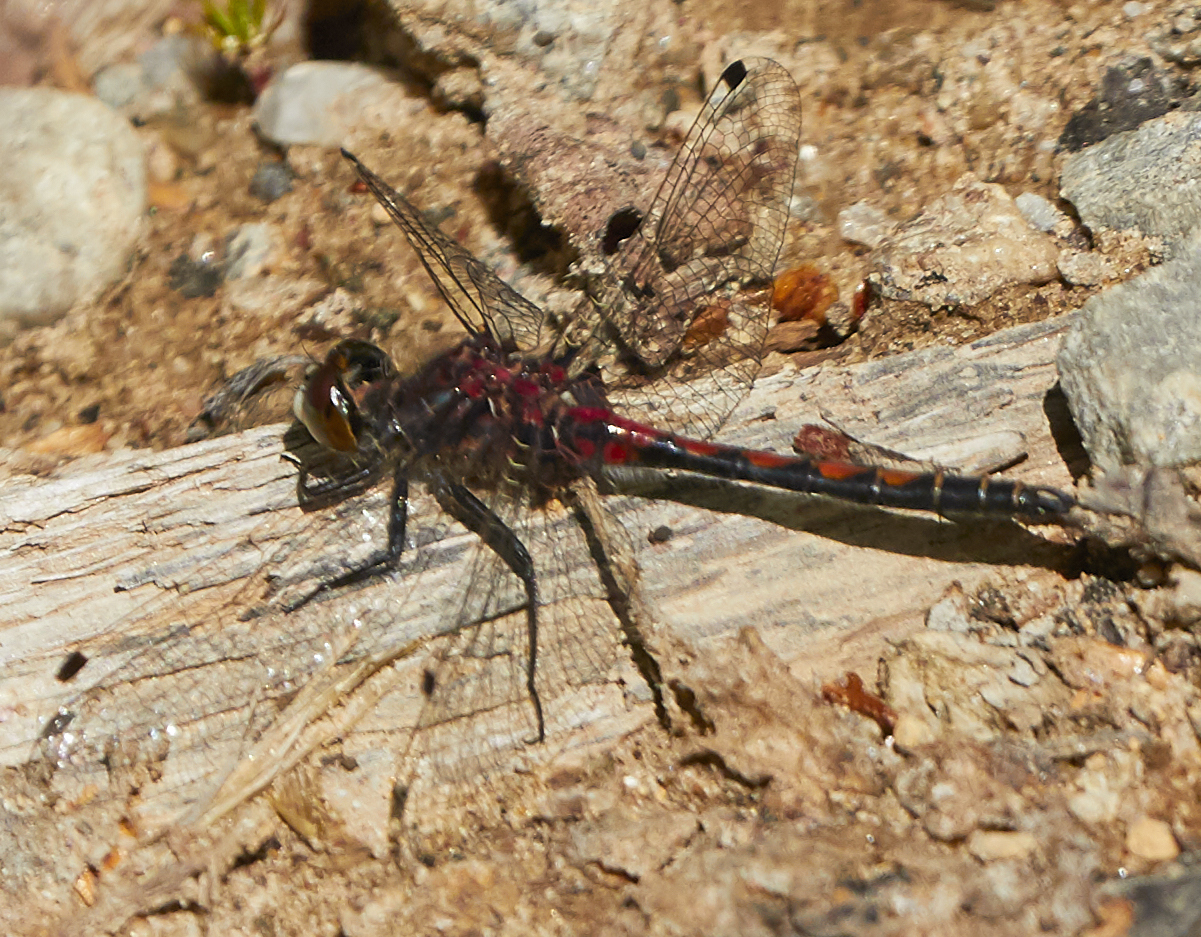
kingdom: Animalia
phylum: Arthropoda
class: Insecta
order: Odonata
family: Libellulidae
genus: Leucorrhinia
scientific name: Leucorrhinia hudsonica
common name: Hudsonian whiteface
